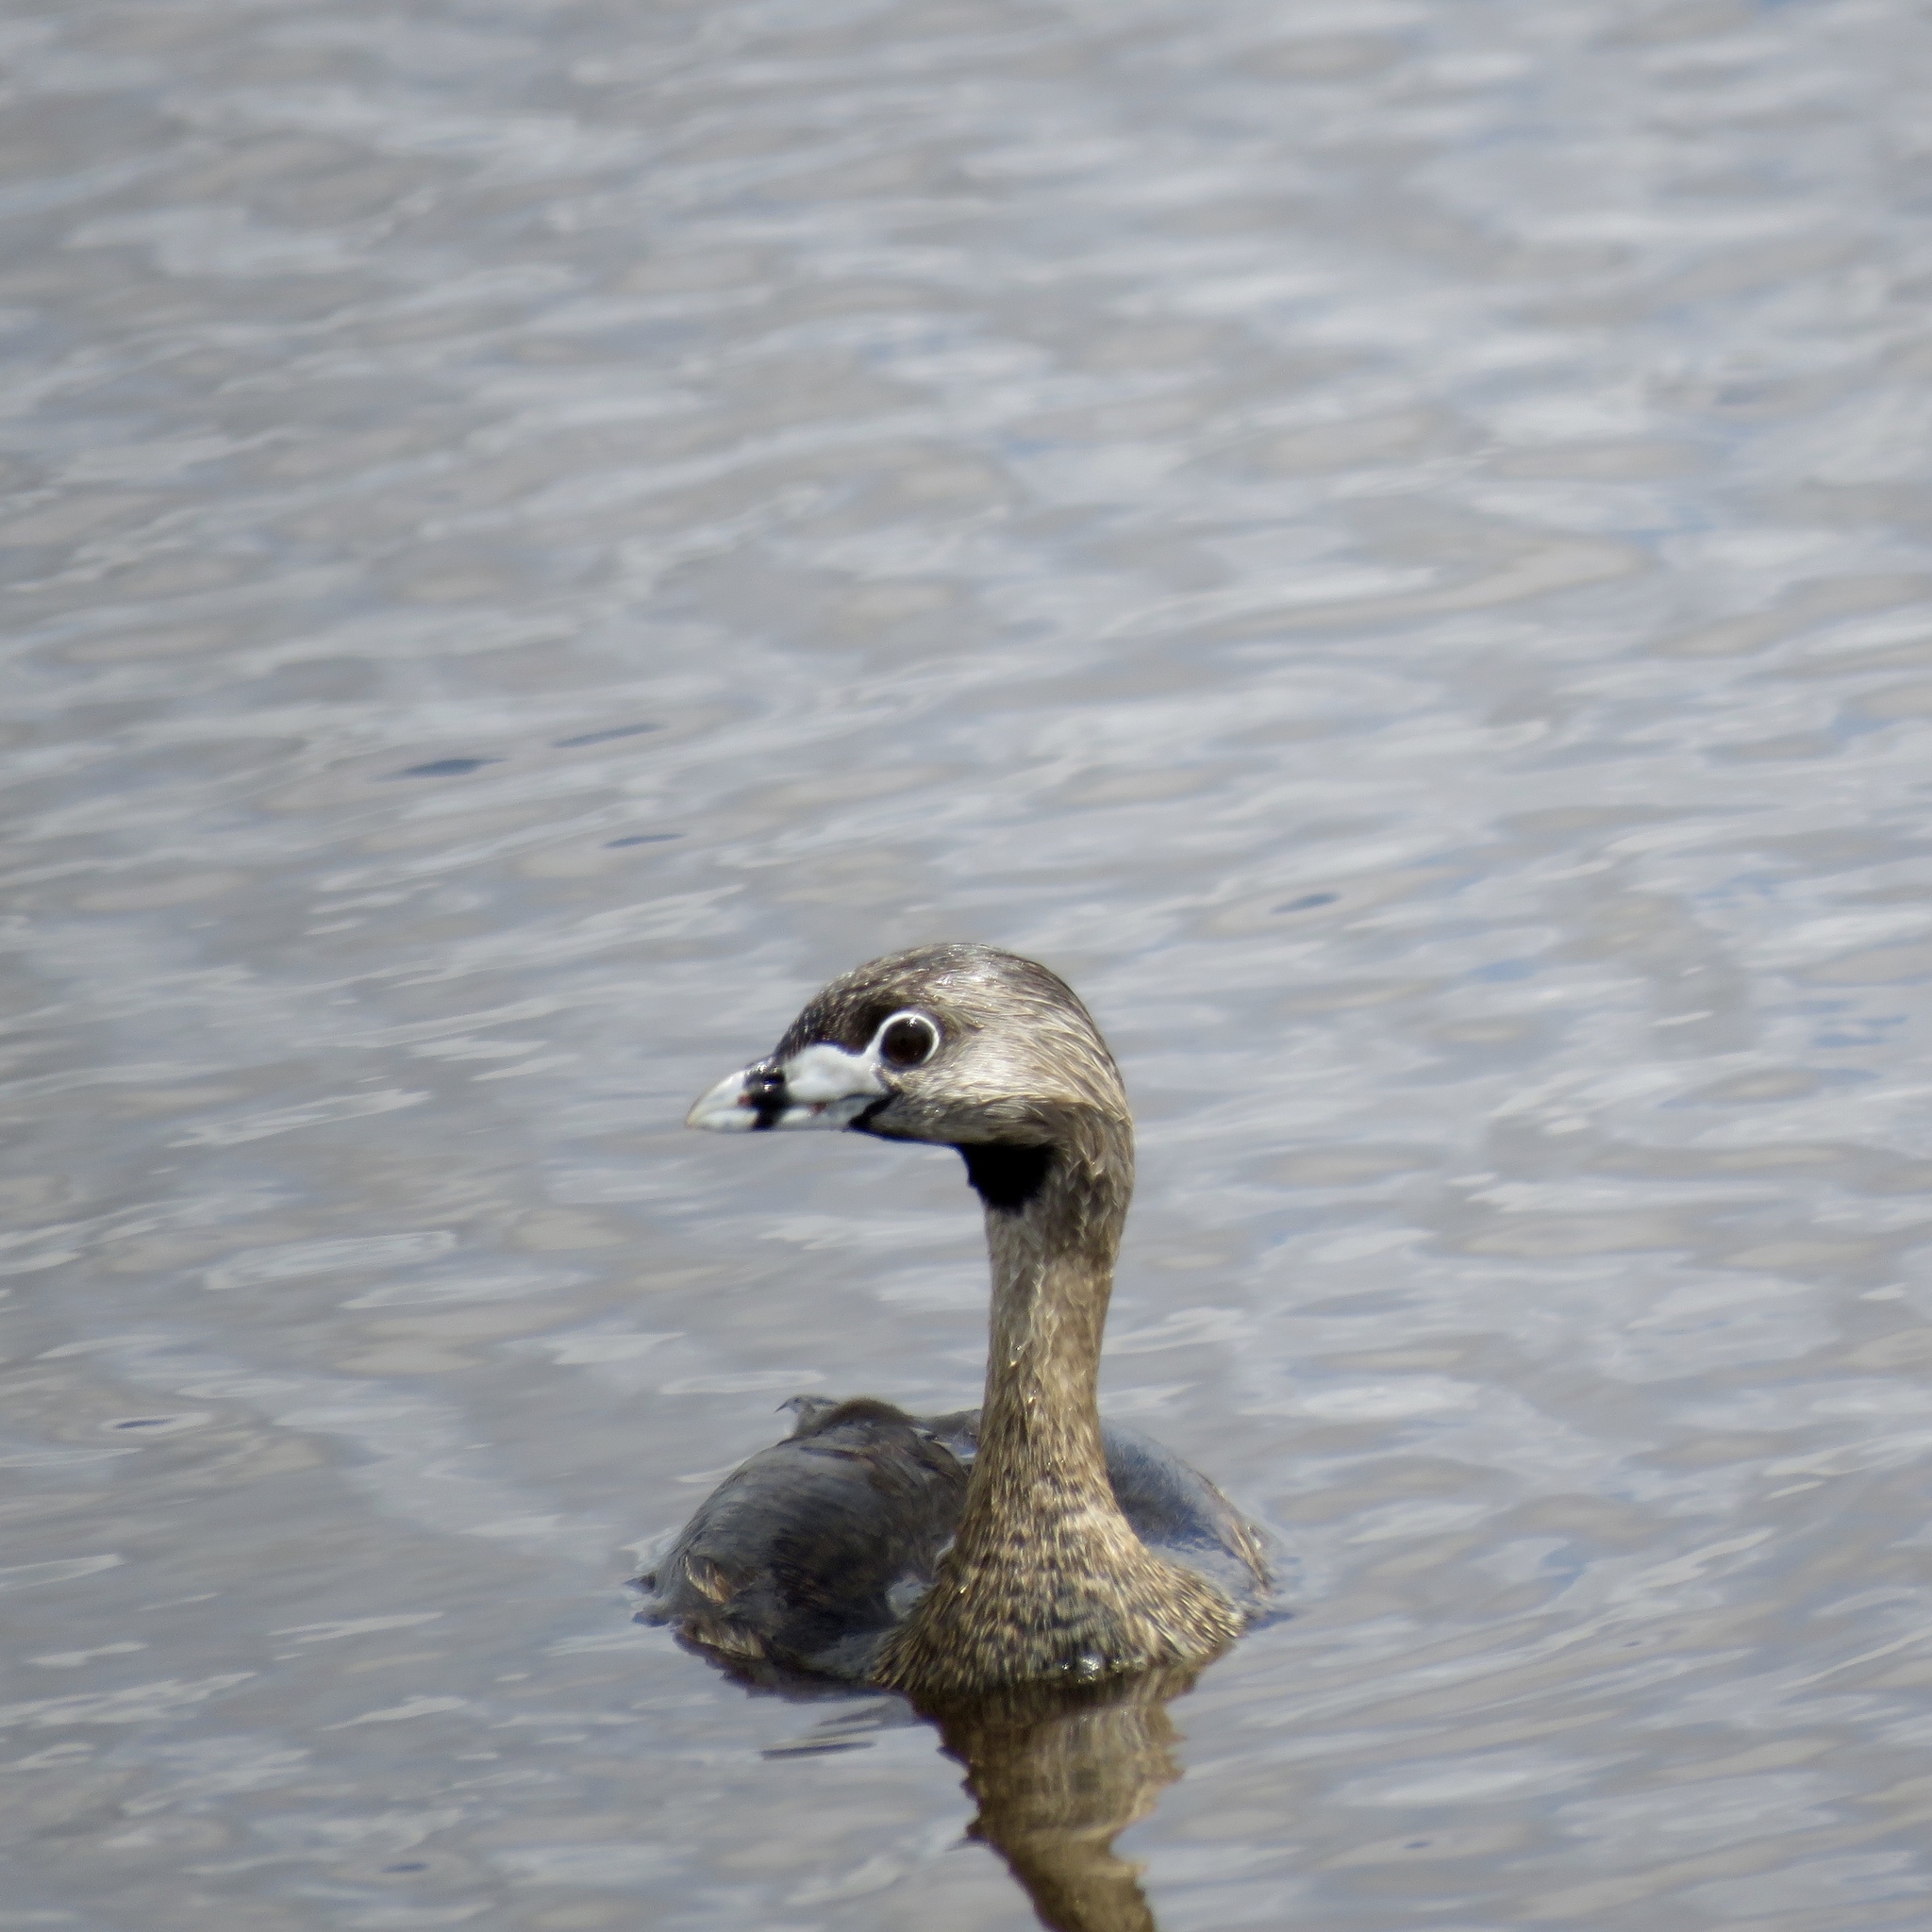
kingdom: Animalia
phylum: Chordata
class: Aves
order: Podicipediformes
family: Podicipedidae
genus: Podilymbus
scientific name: Podilymbus podiceps
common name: Pied-billed grebe
